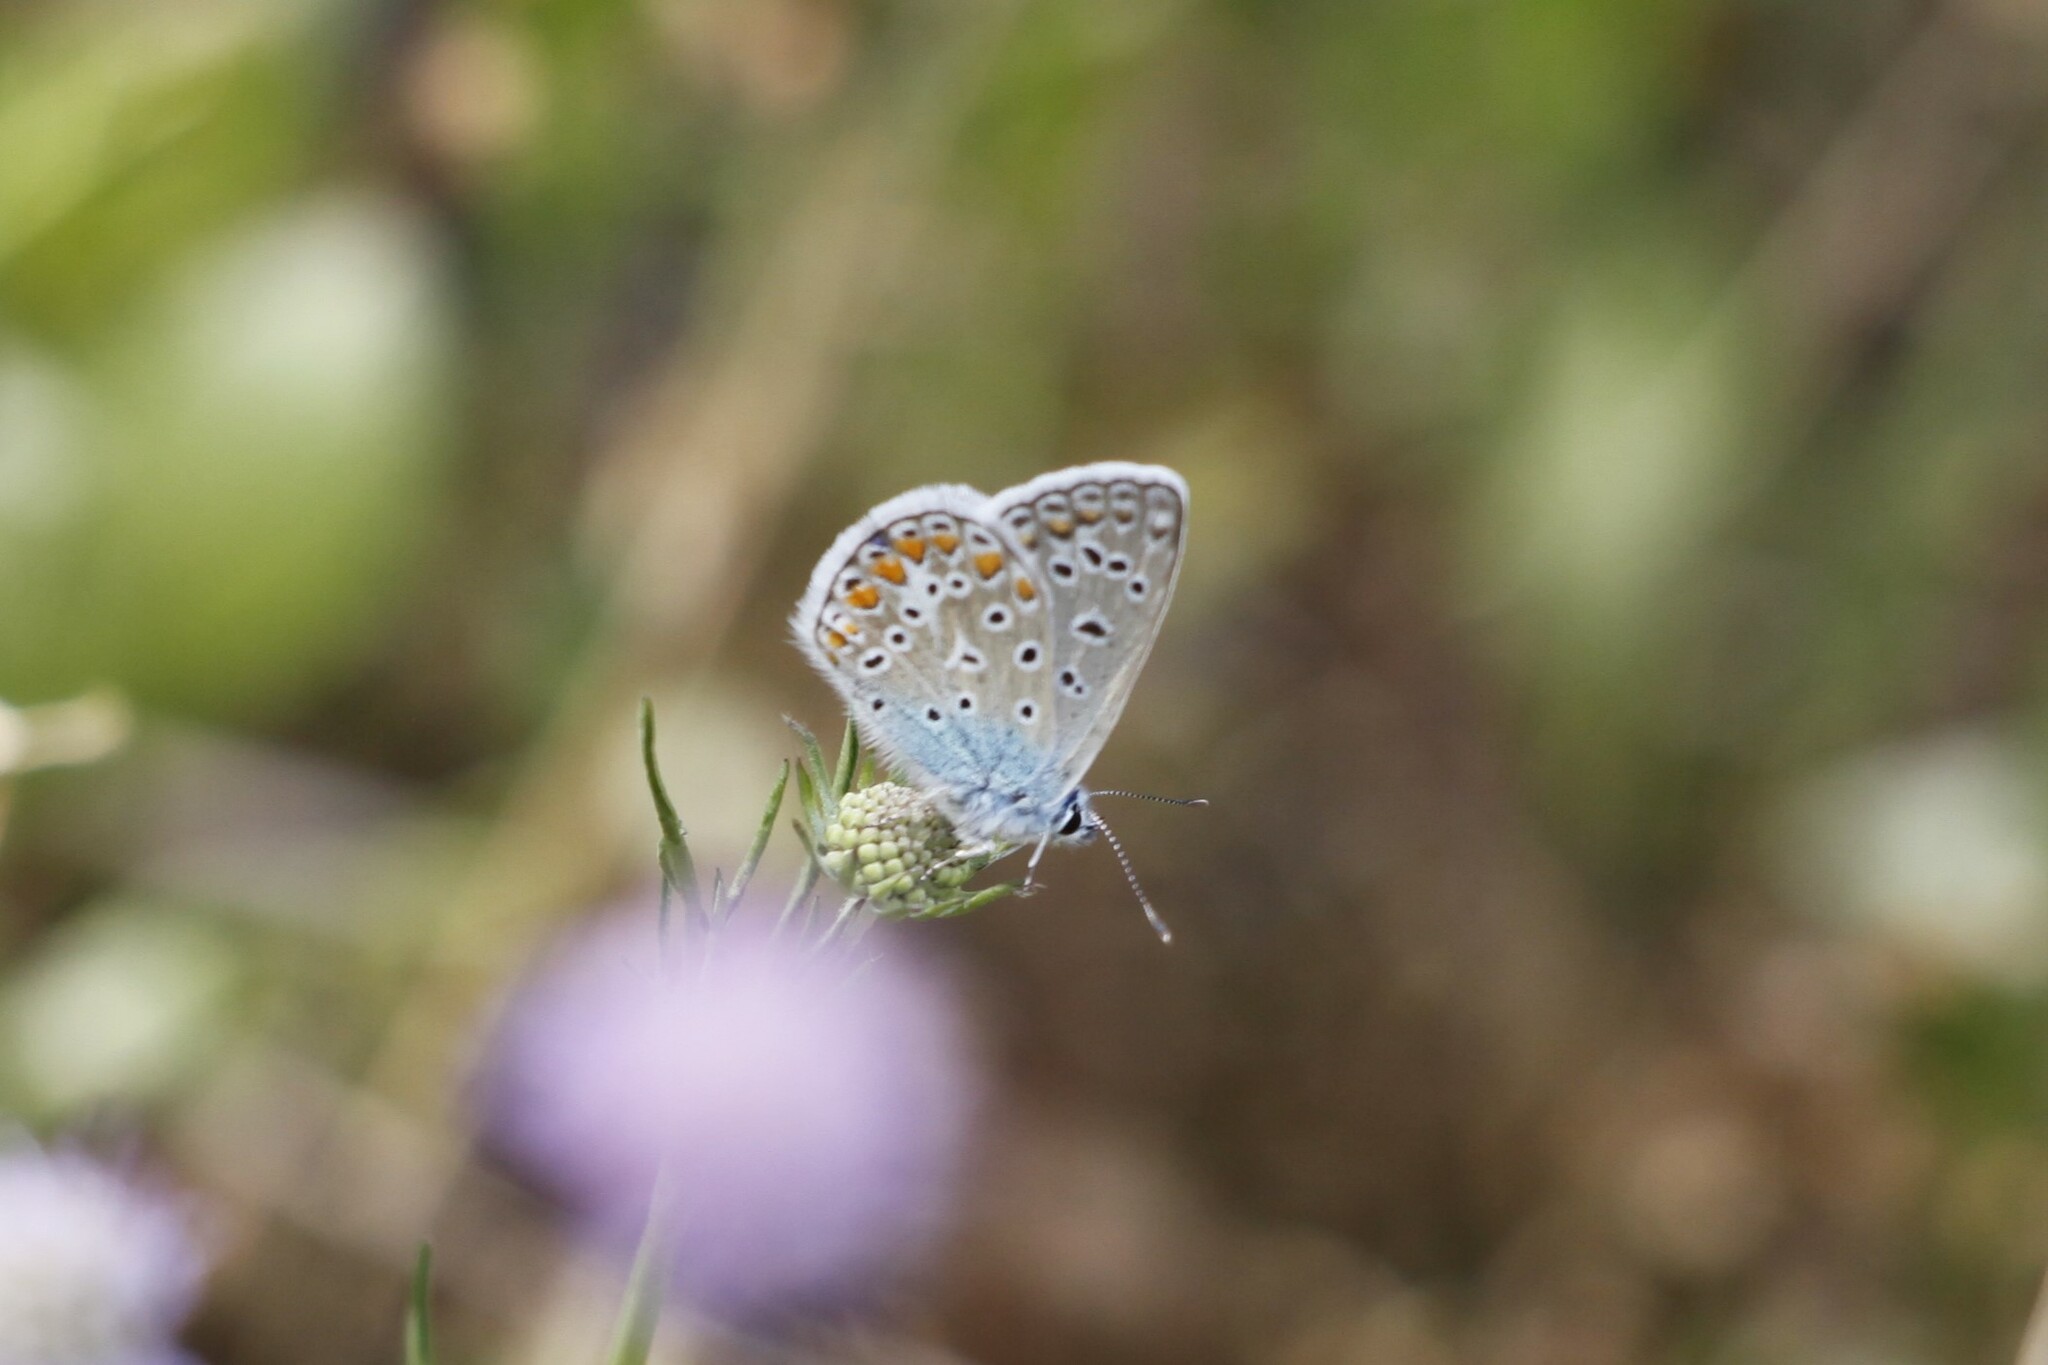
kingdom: Animalia
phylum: Arthropoda
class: Insecta
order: Lepidoptera
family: Lycaenidae
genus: Polyommatus
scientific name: Polyommatus icarus
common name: Common blue
